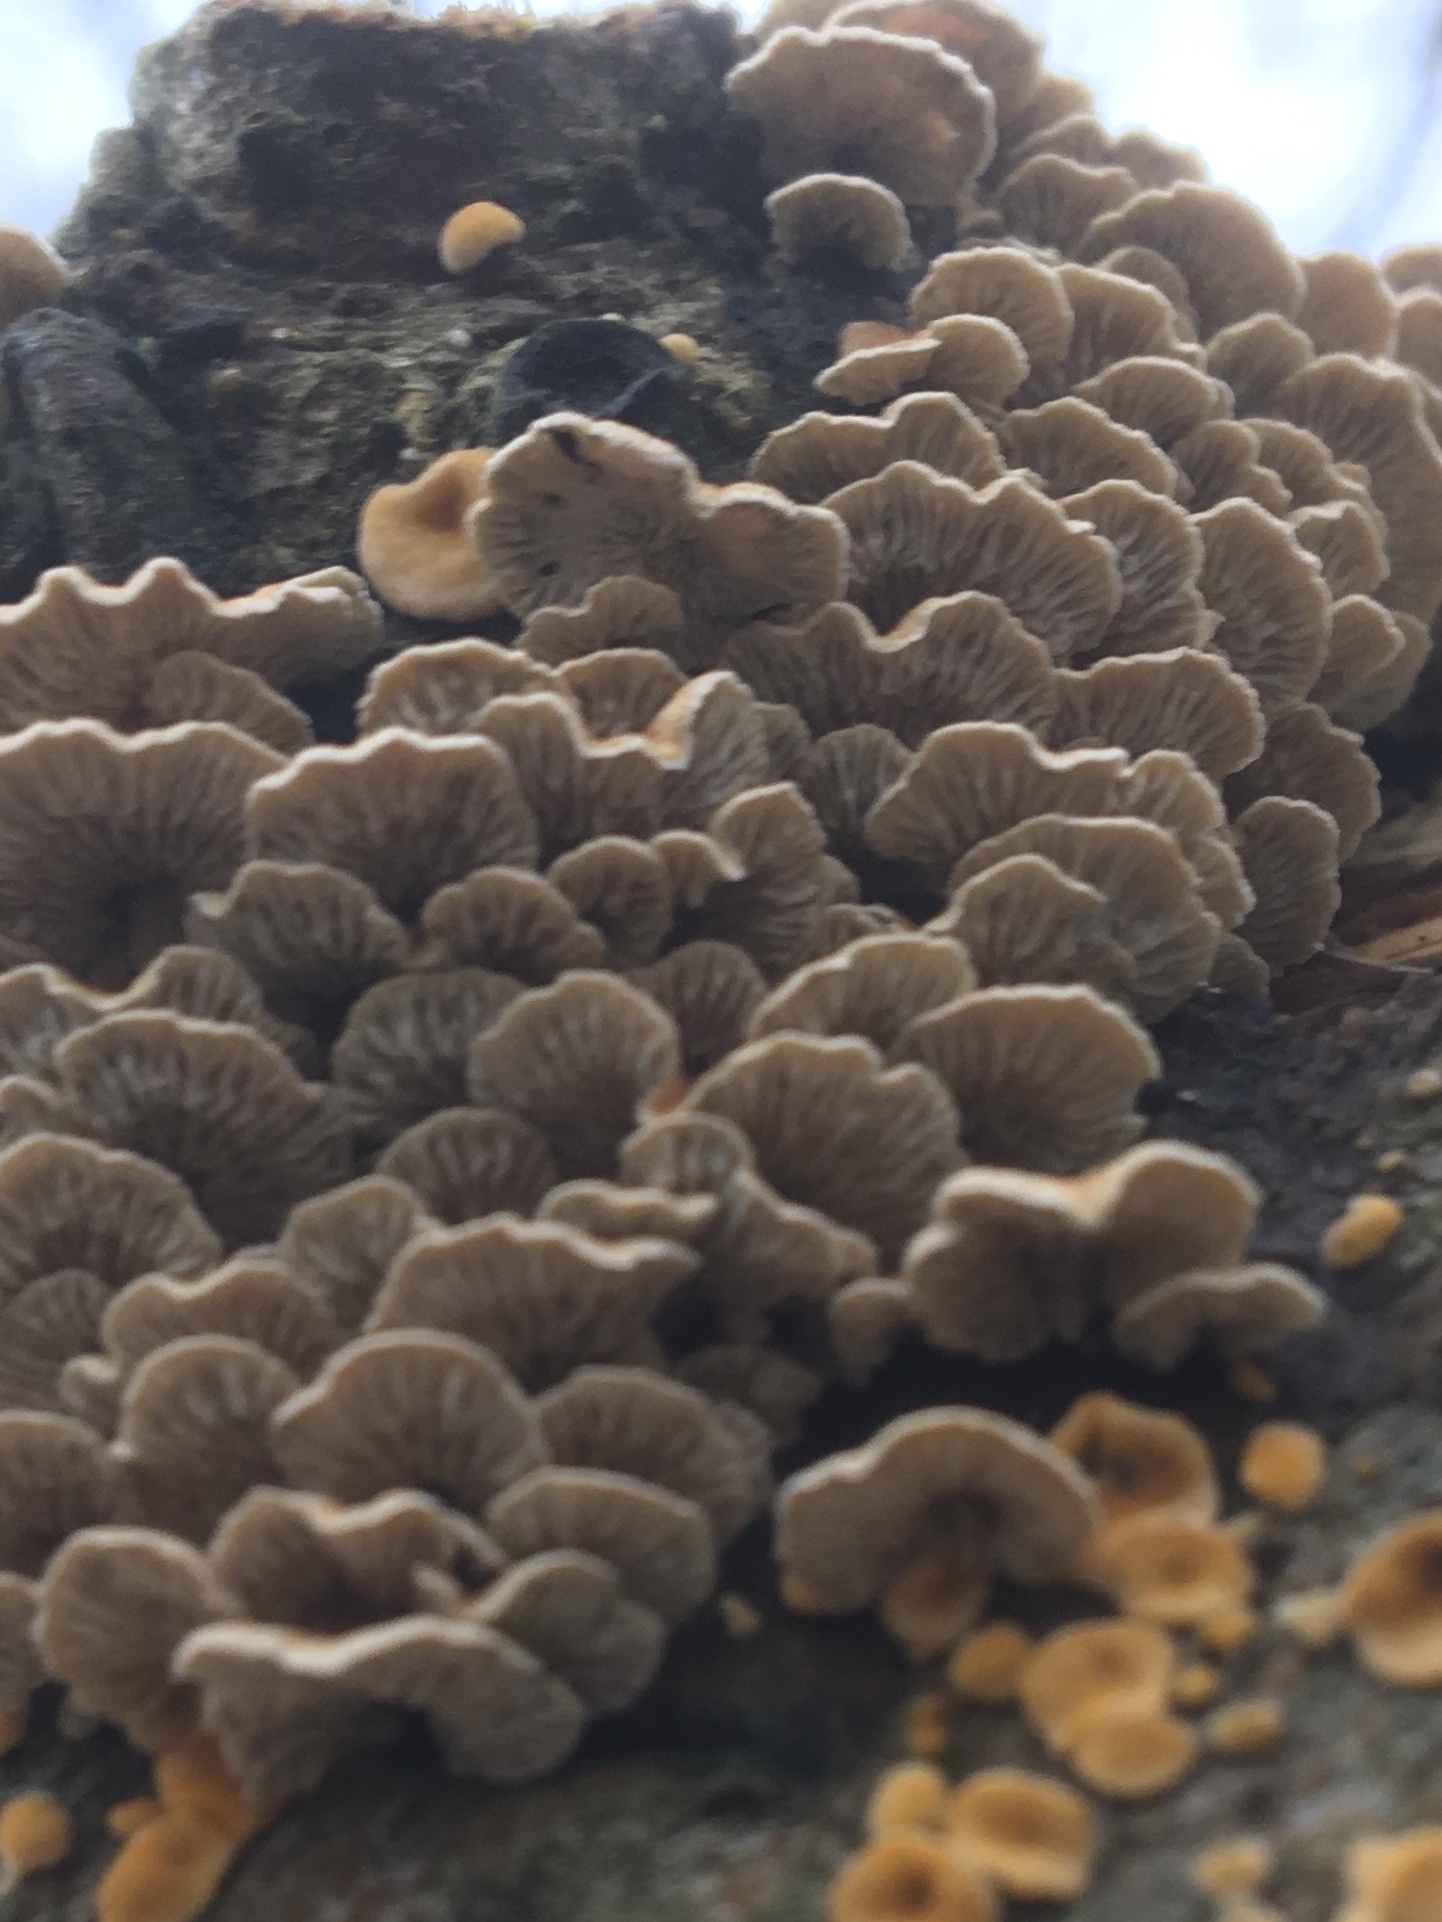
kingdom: Fungi
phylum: Basidiomycota
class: Agaricomycetes
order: Amylocorticiales
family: Amylocorticiaceae
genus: Plicaturopsis
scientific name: Plicaturopsis crispa
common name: Crimped gill
